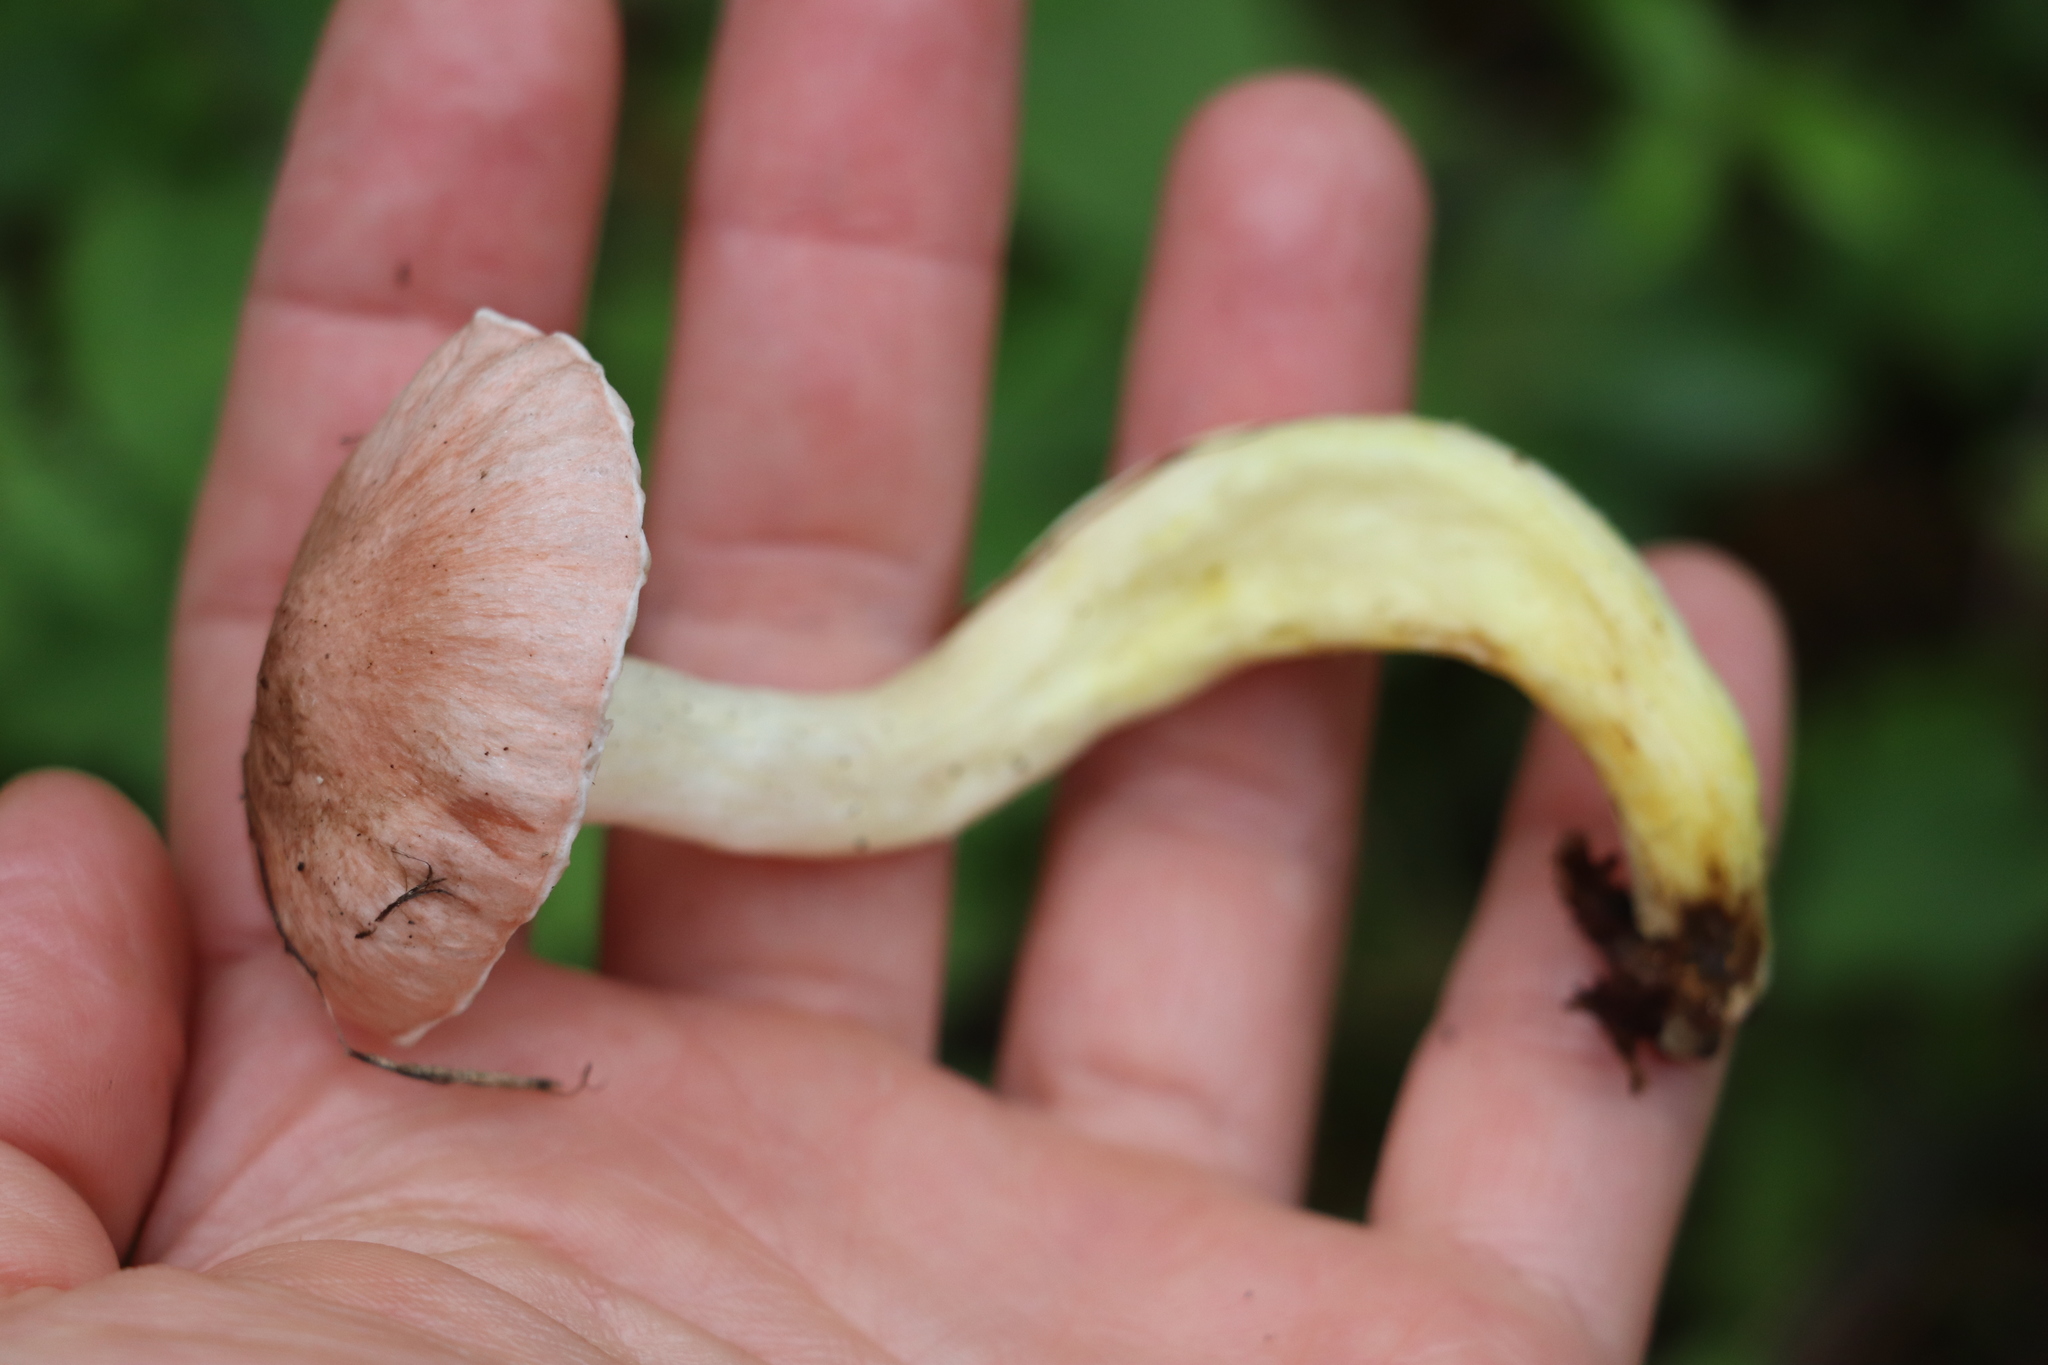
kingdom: Fungi
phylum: Basidiomycota
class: Agaricomycetes
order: Boletales
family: Gomphidiaceae
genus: Gomphidius
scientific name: Gomphidius flavipes
